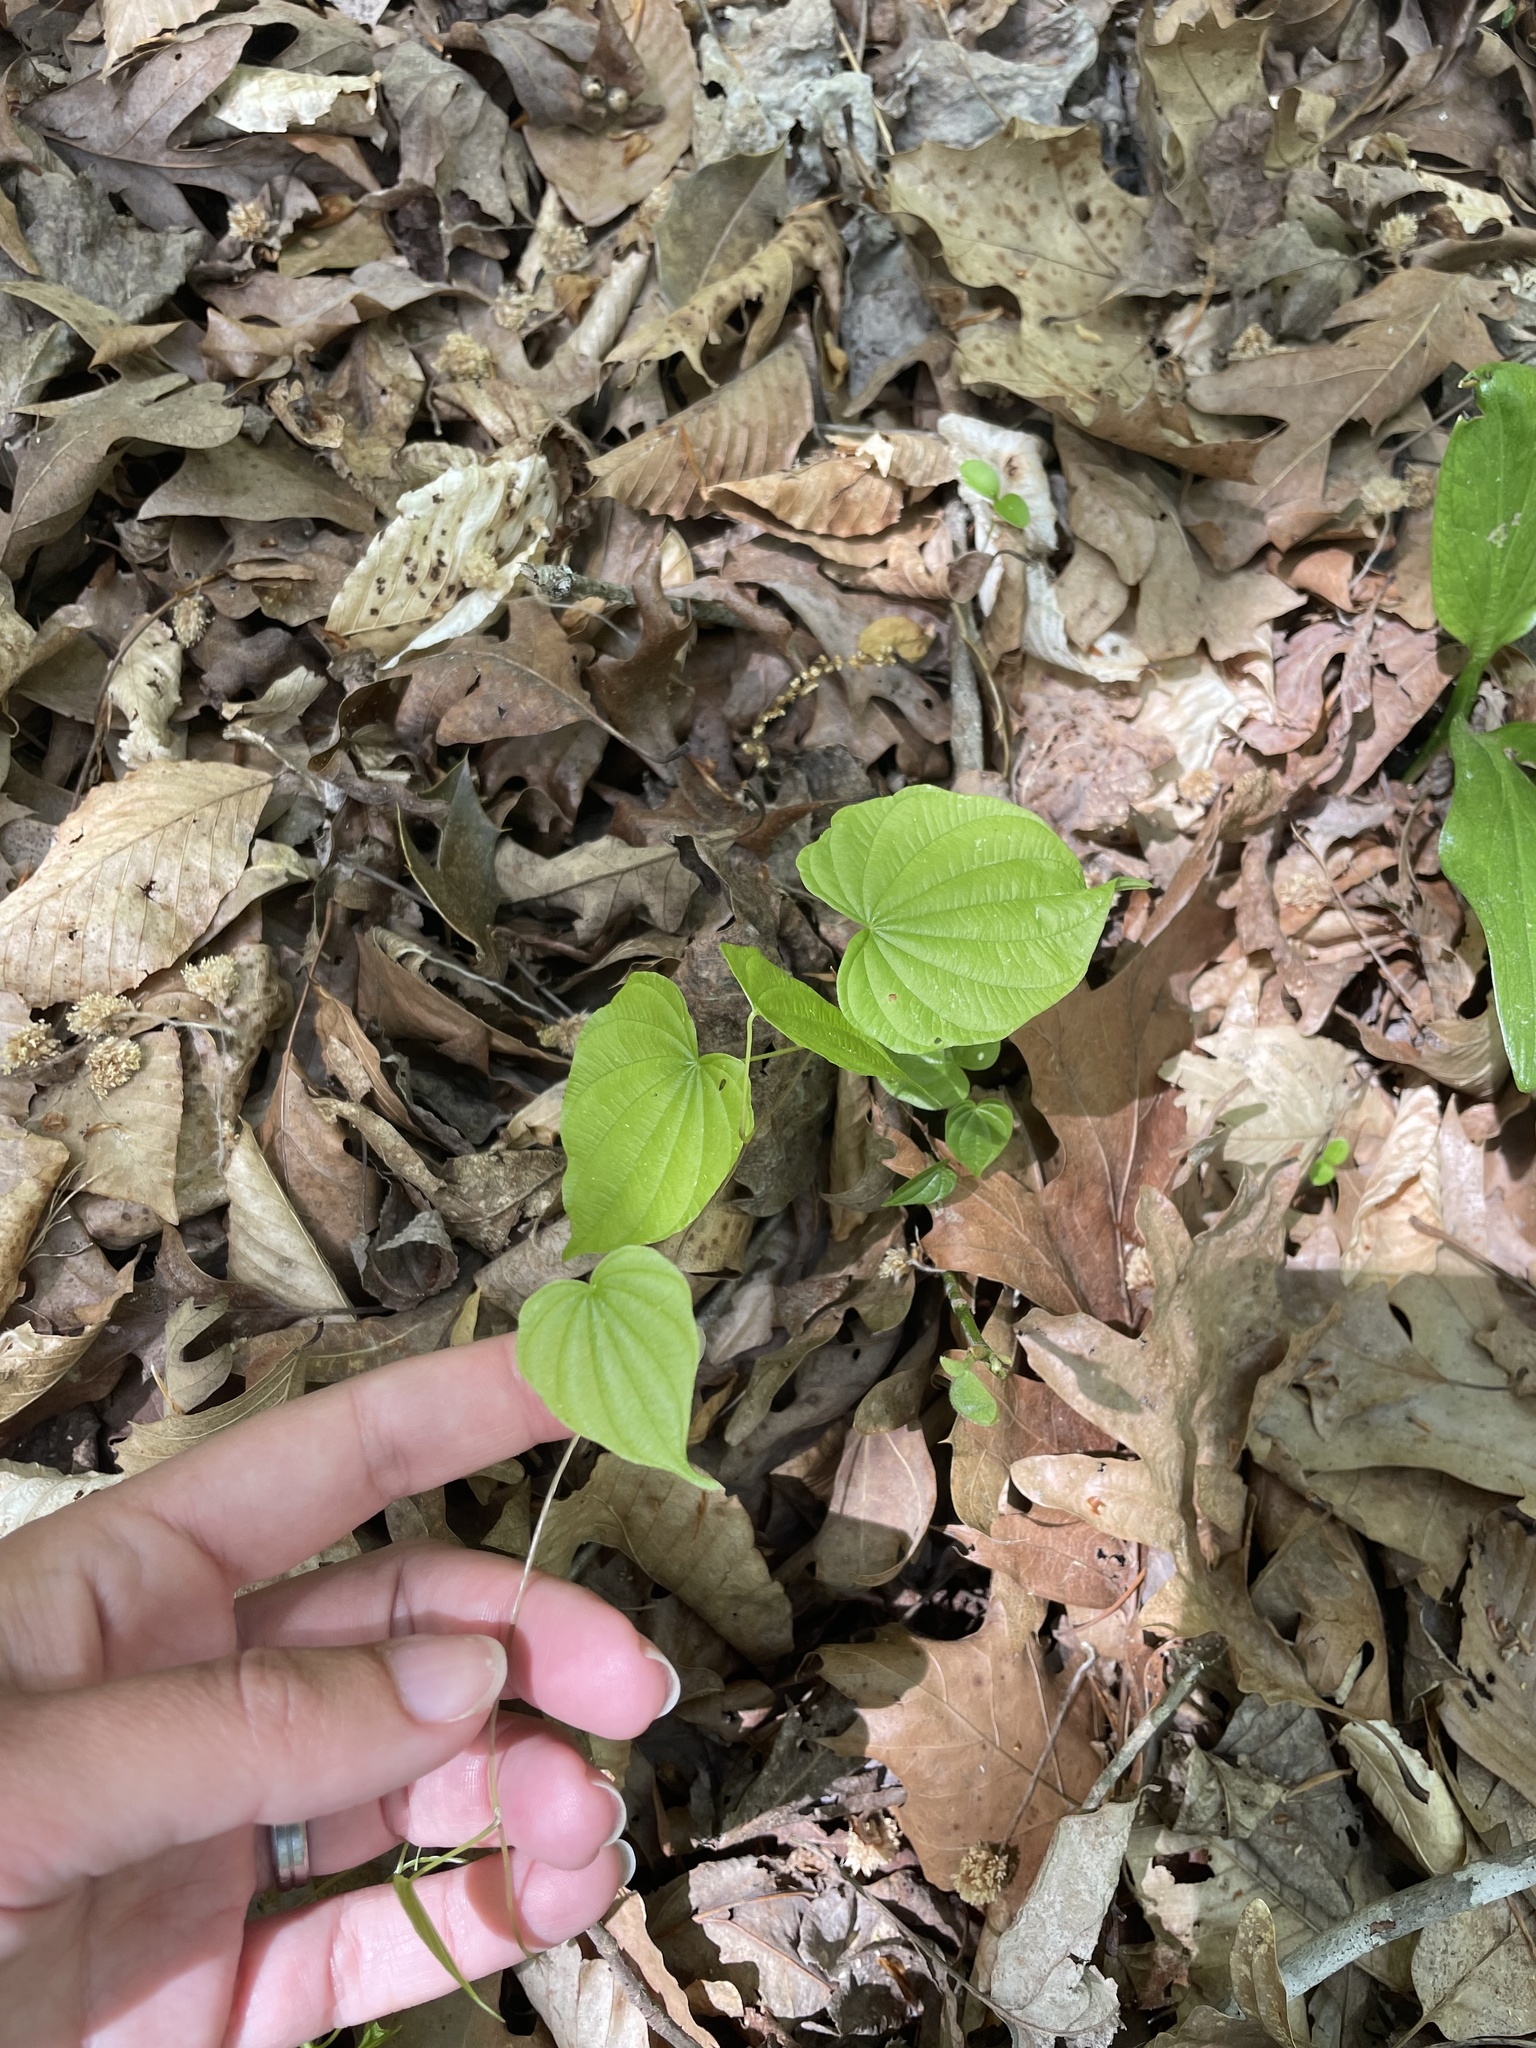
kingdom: Plantae
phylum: Tracheophyta
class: Liliopsida
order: Dioscoreales
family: Dioscoreaceae
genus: Dioscorea
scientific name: Dioscorea villosa
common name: Wild yam
